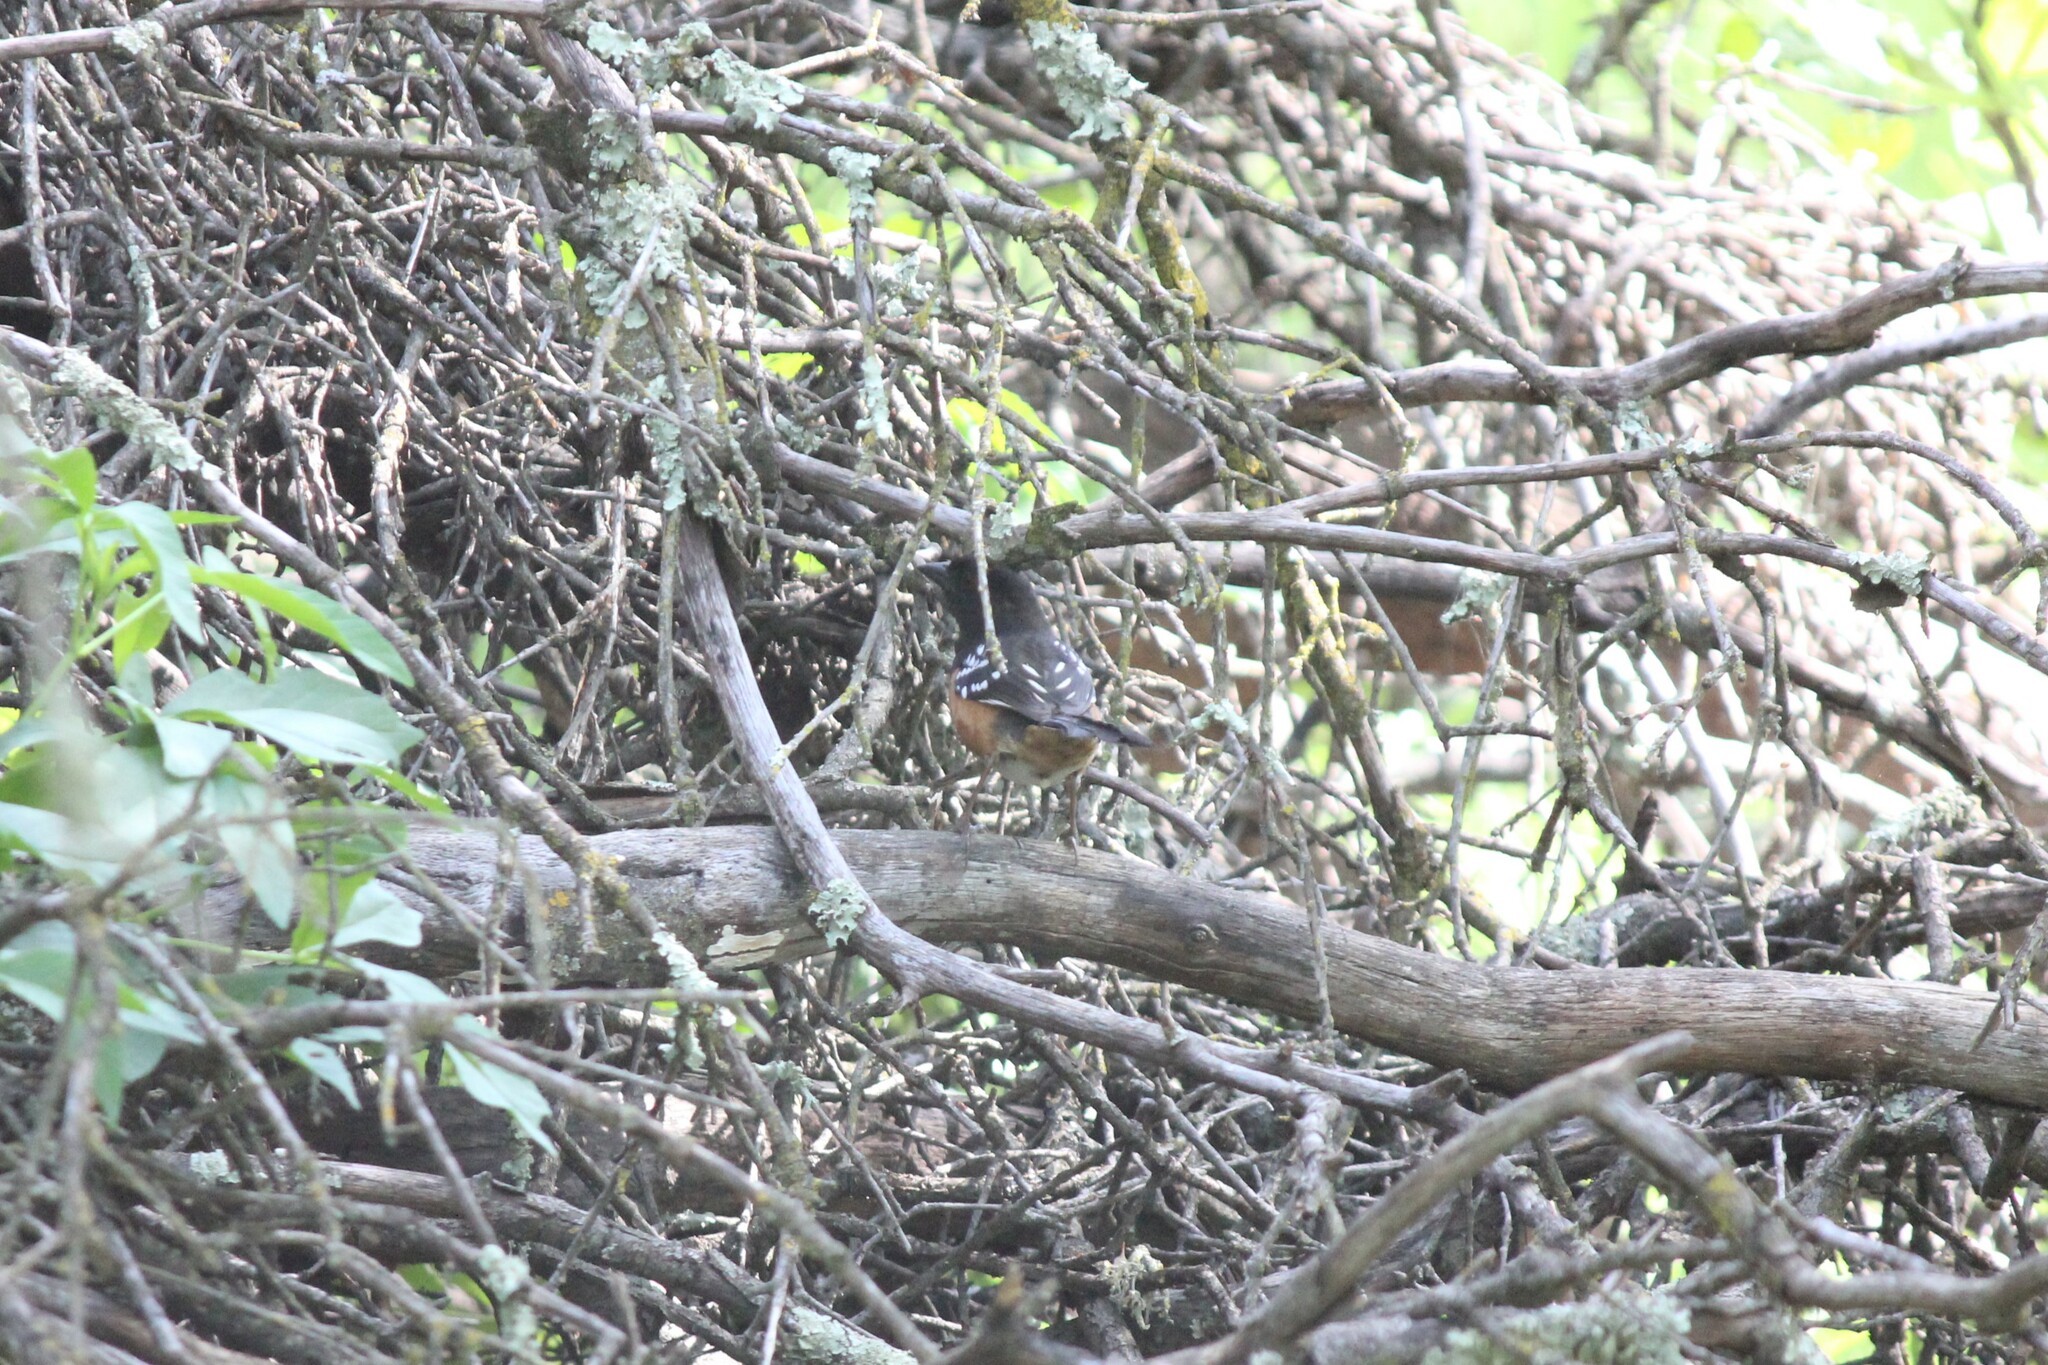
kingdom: Animalia
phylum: Chordata
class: Aves
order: Passeriformes
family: Passerellidae
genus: Pipilo
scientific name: Pipilo maculatus
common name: Spotted towhee
